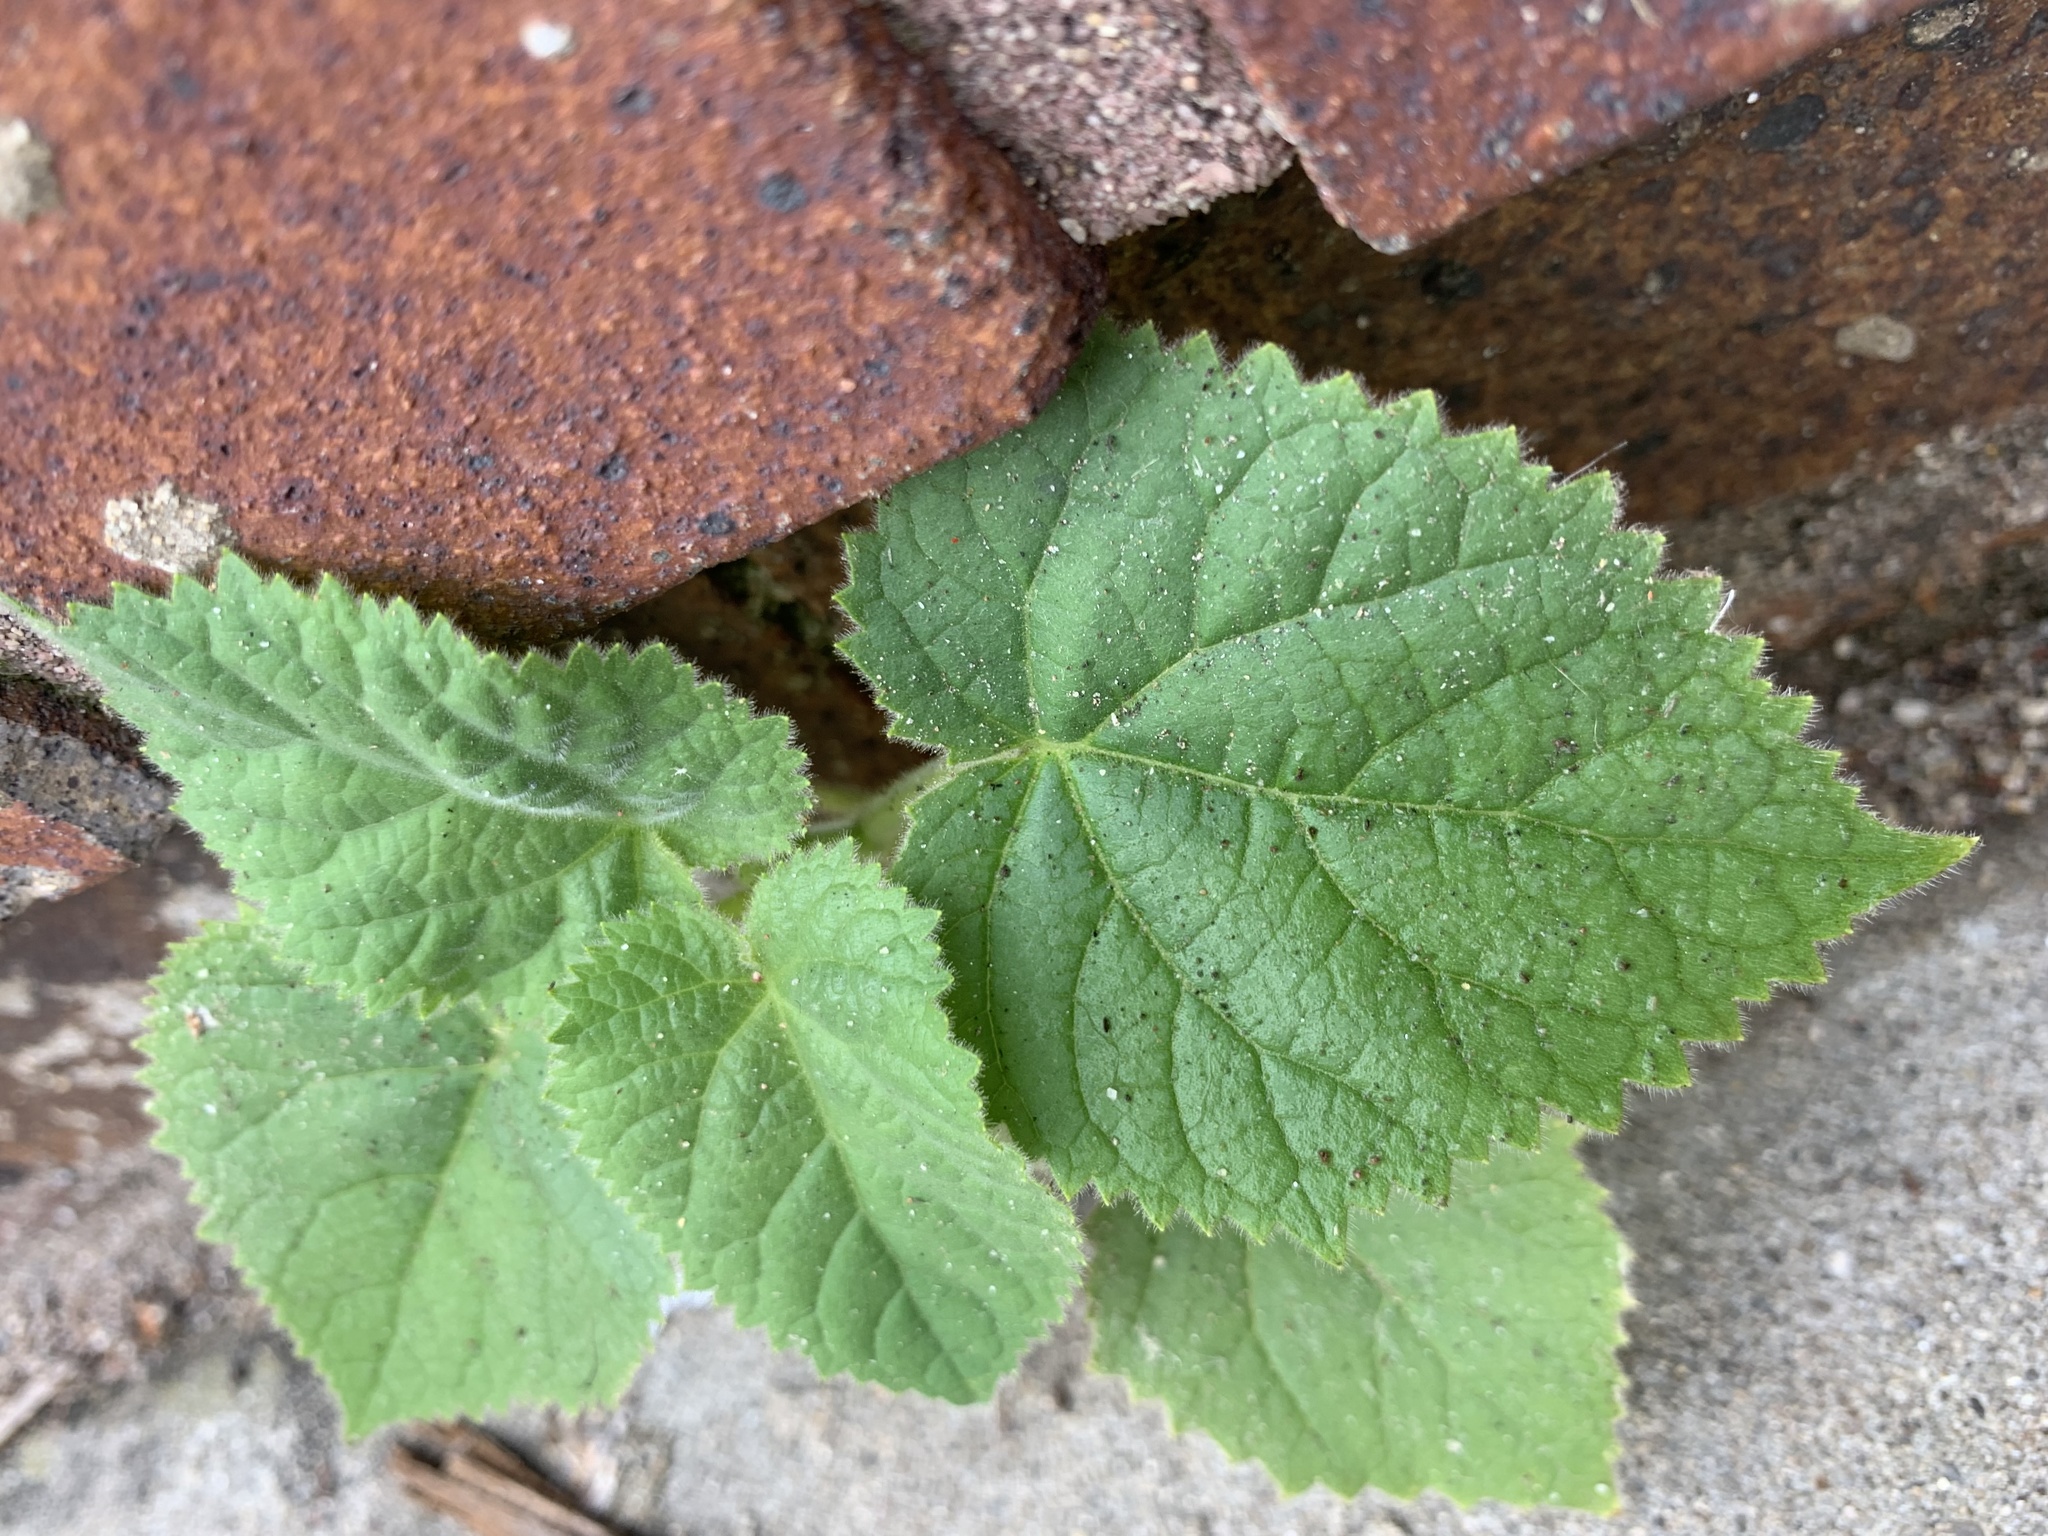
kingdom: Plantae
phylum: Tracheophyta
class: Magnoliopsida
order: Lamiales
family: Paulowniaceae
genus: Paulownia
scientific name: Paulownia tomentosa
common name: Foxglove-tree
